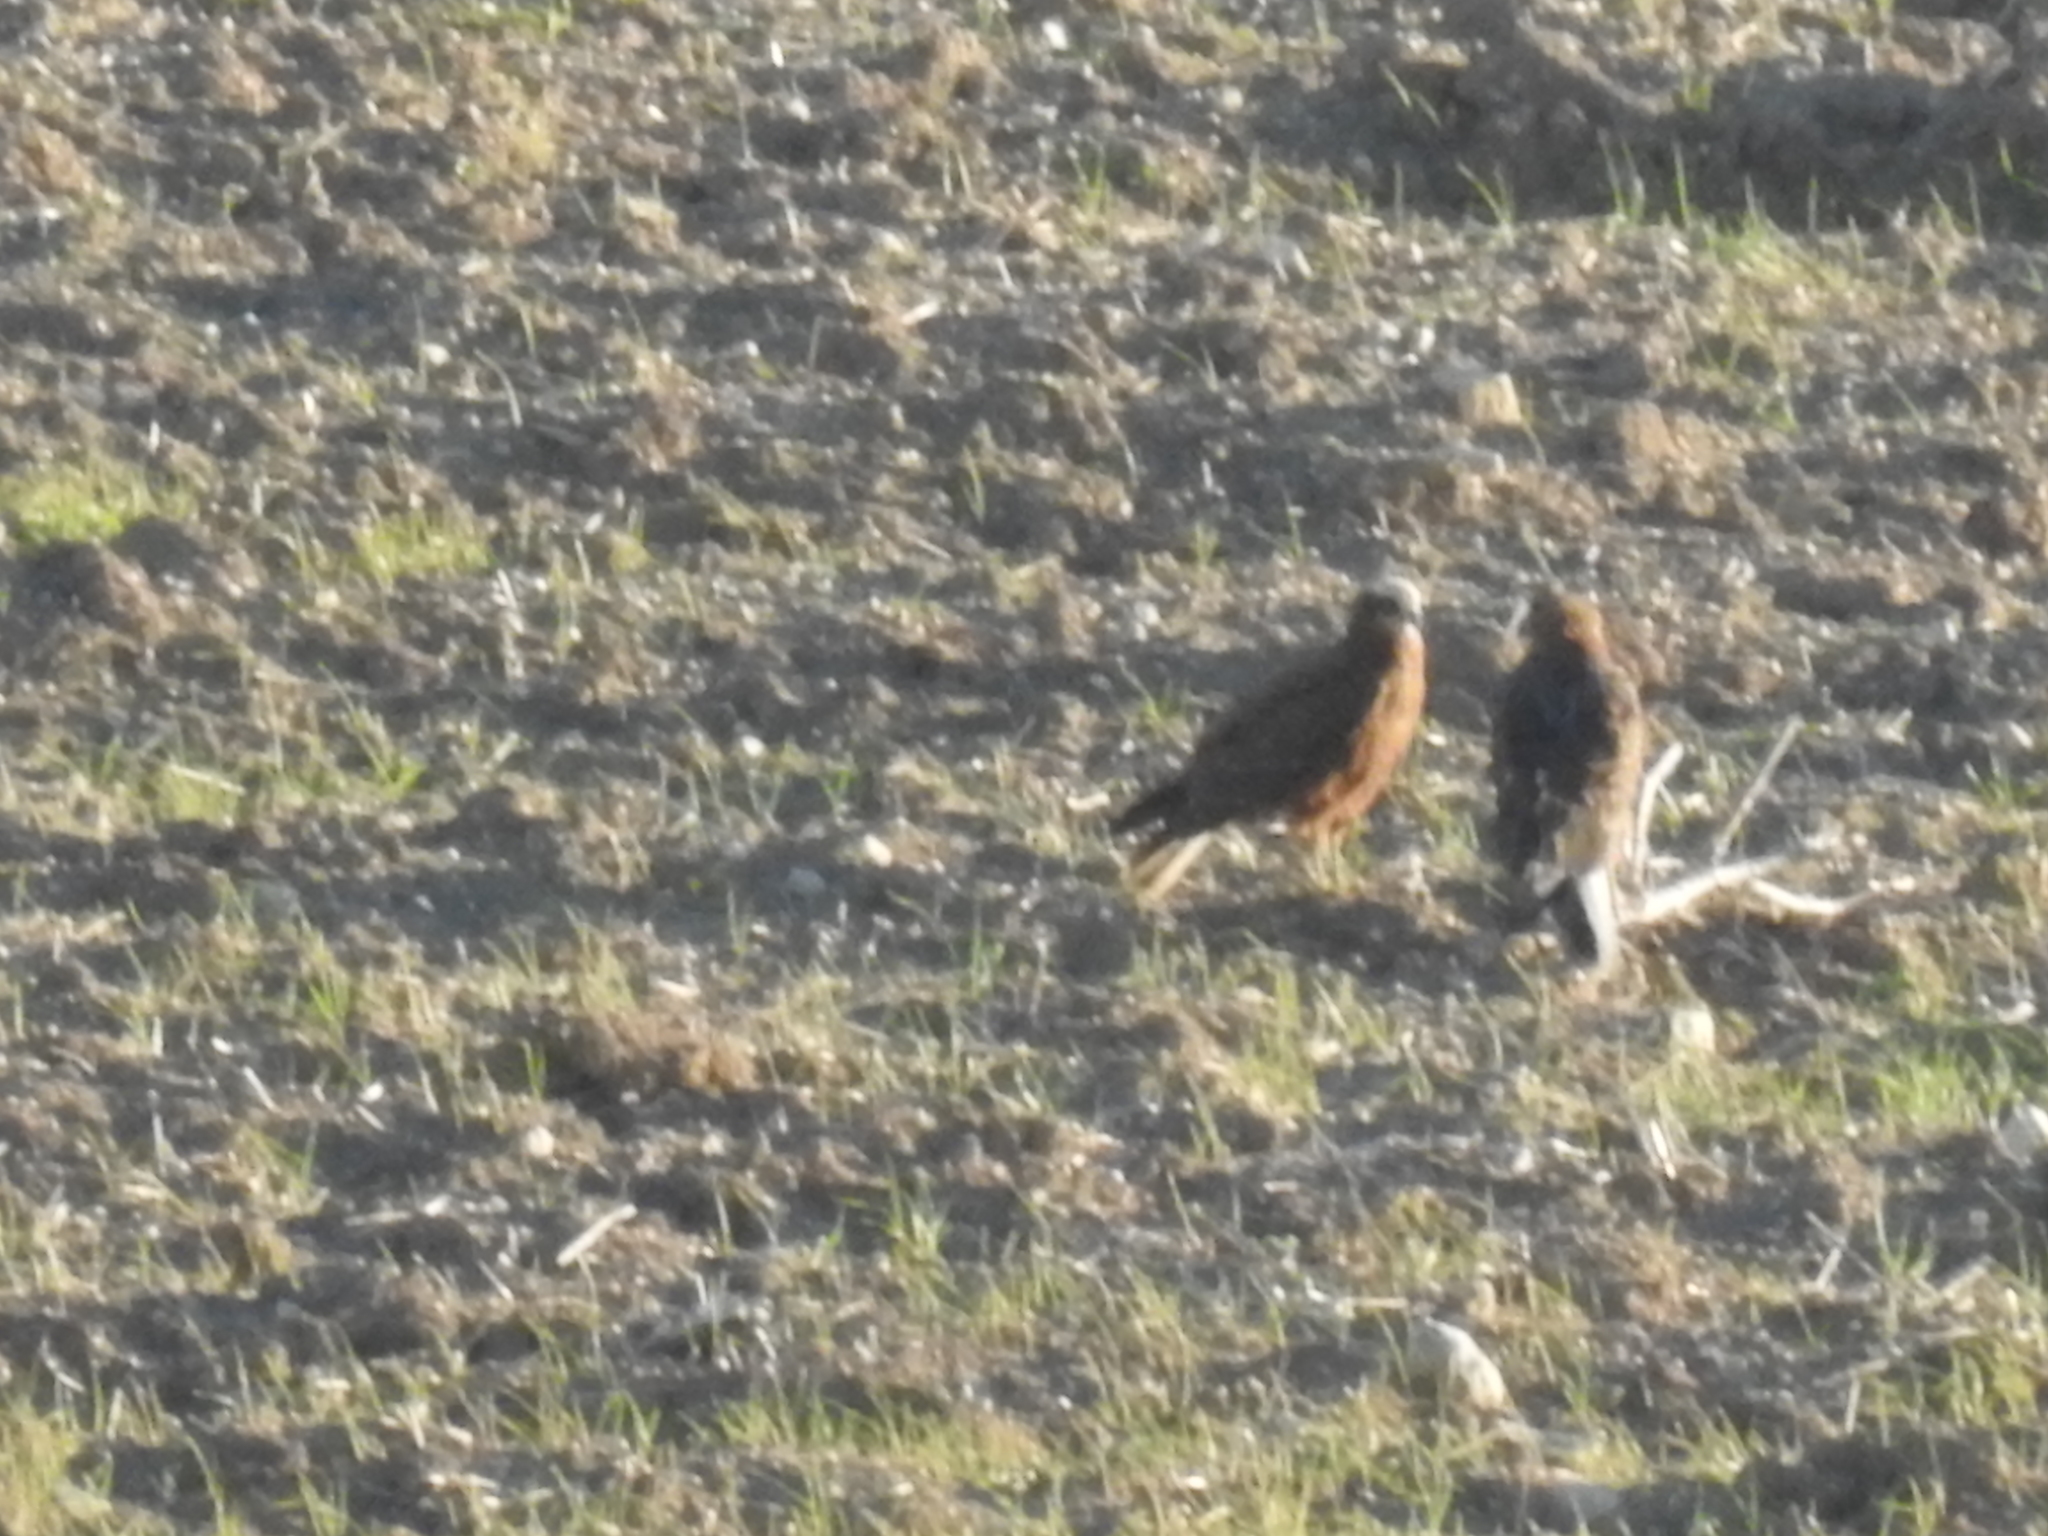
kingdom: Animalia
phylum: Chordata
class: Aves
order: Accipitriformes
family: Accipitridae
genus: Circus
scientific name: Circus aeruginosus
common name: Western marsh harrier
